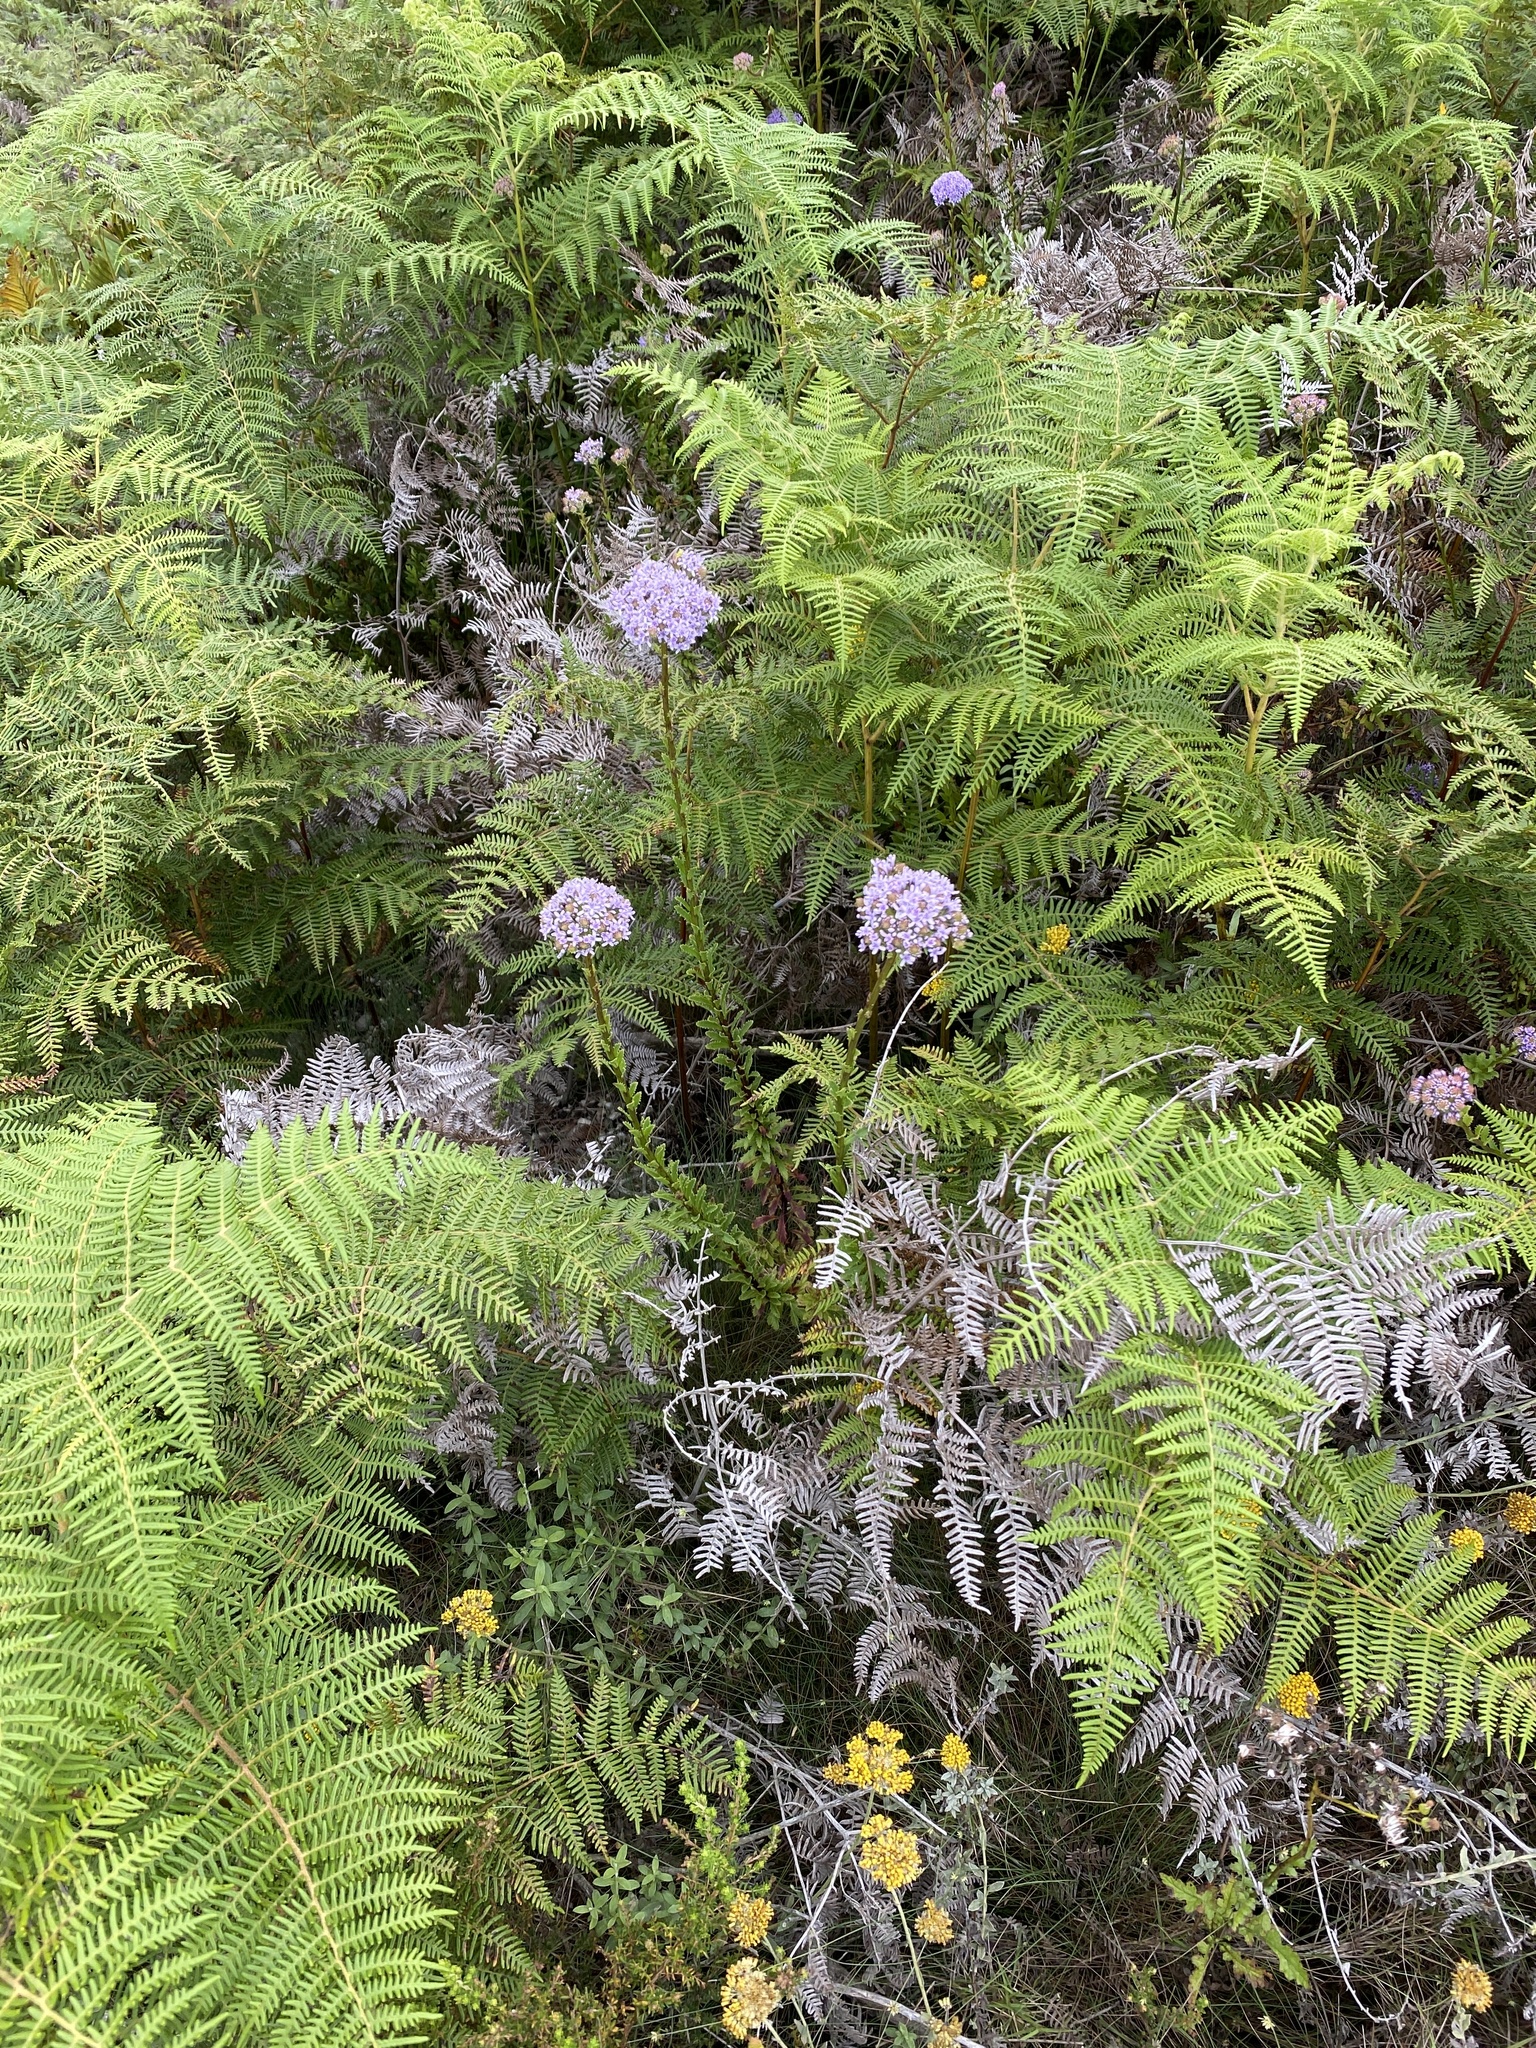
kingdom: Plantae
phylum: Tracheophyta
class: Magnoliopsida
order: Lamiales
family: Scrophulariaceae
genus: Pseudoselago
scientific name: Pseudoselago langebergensis
